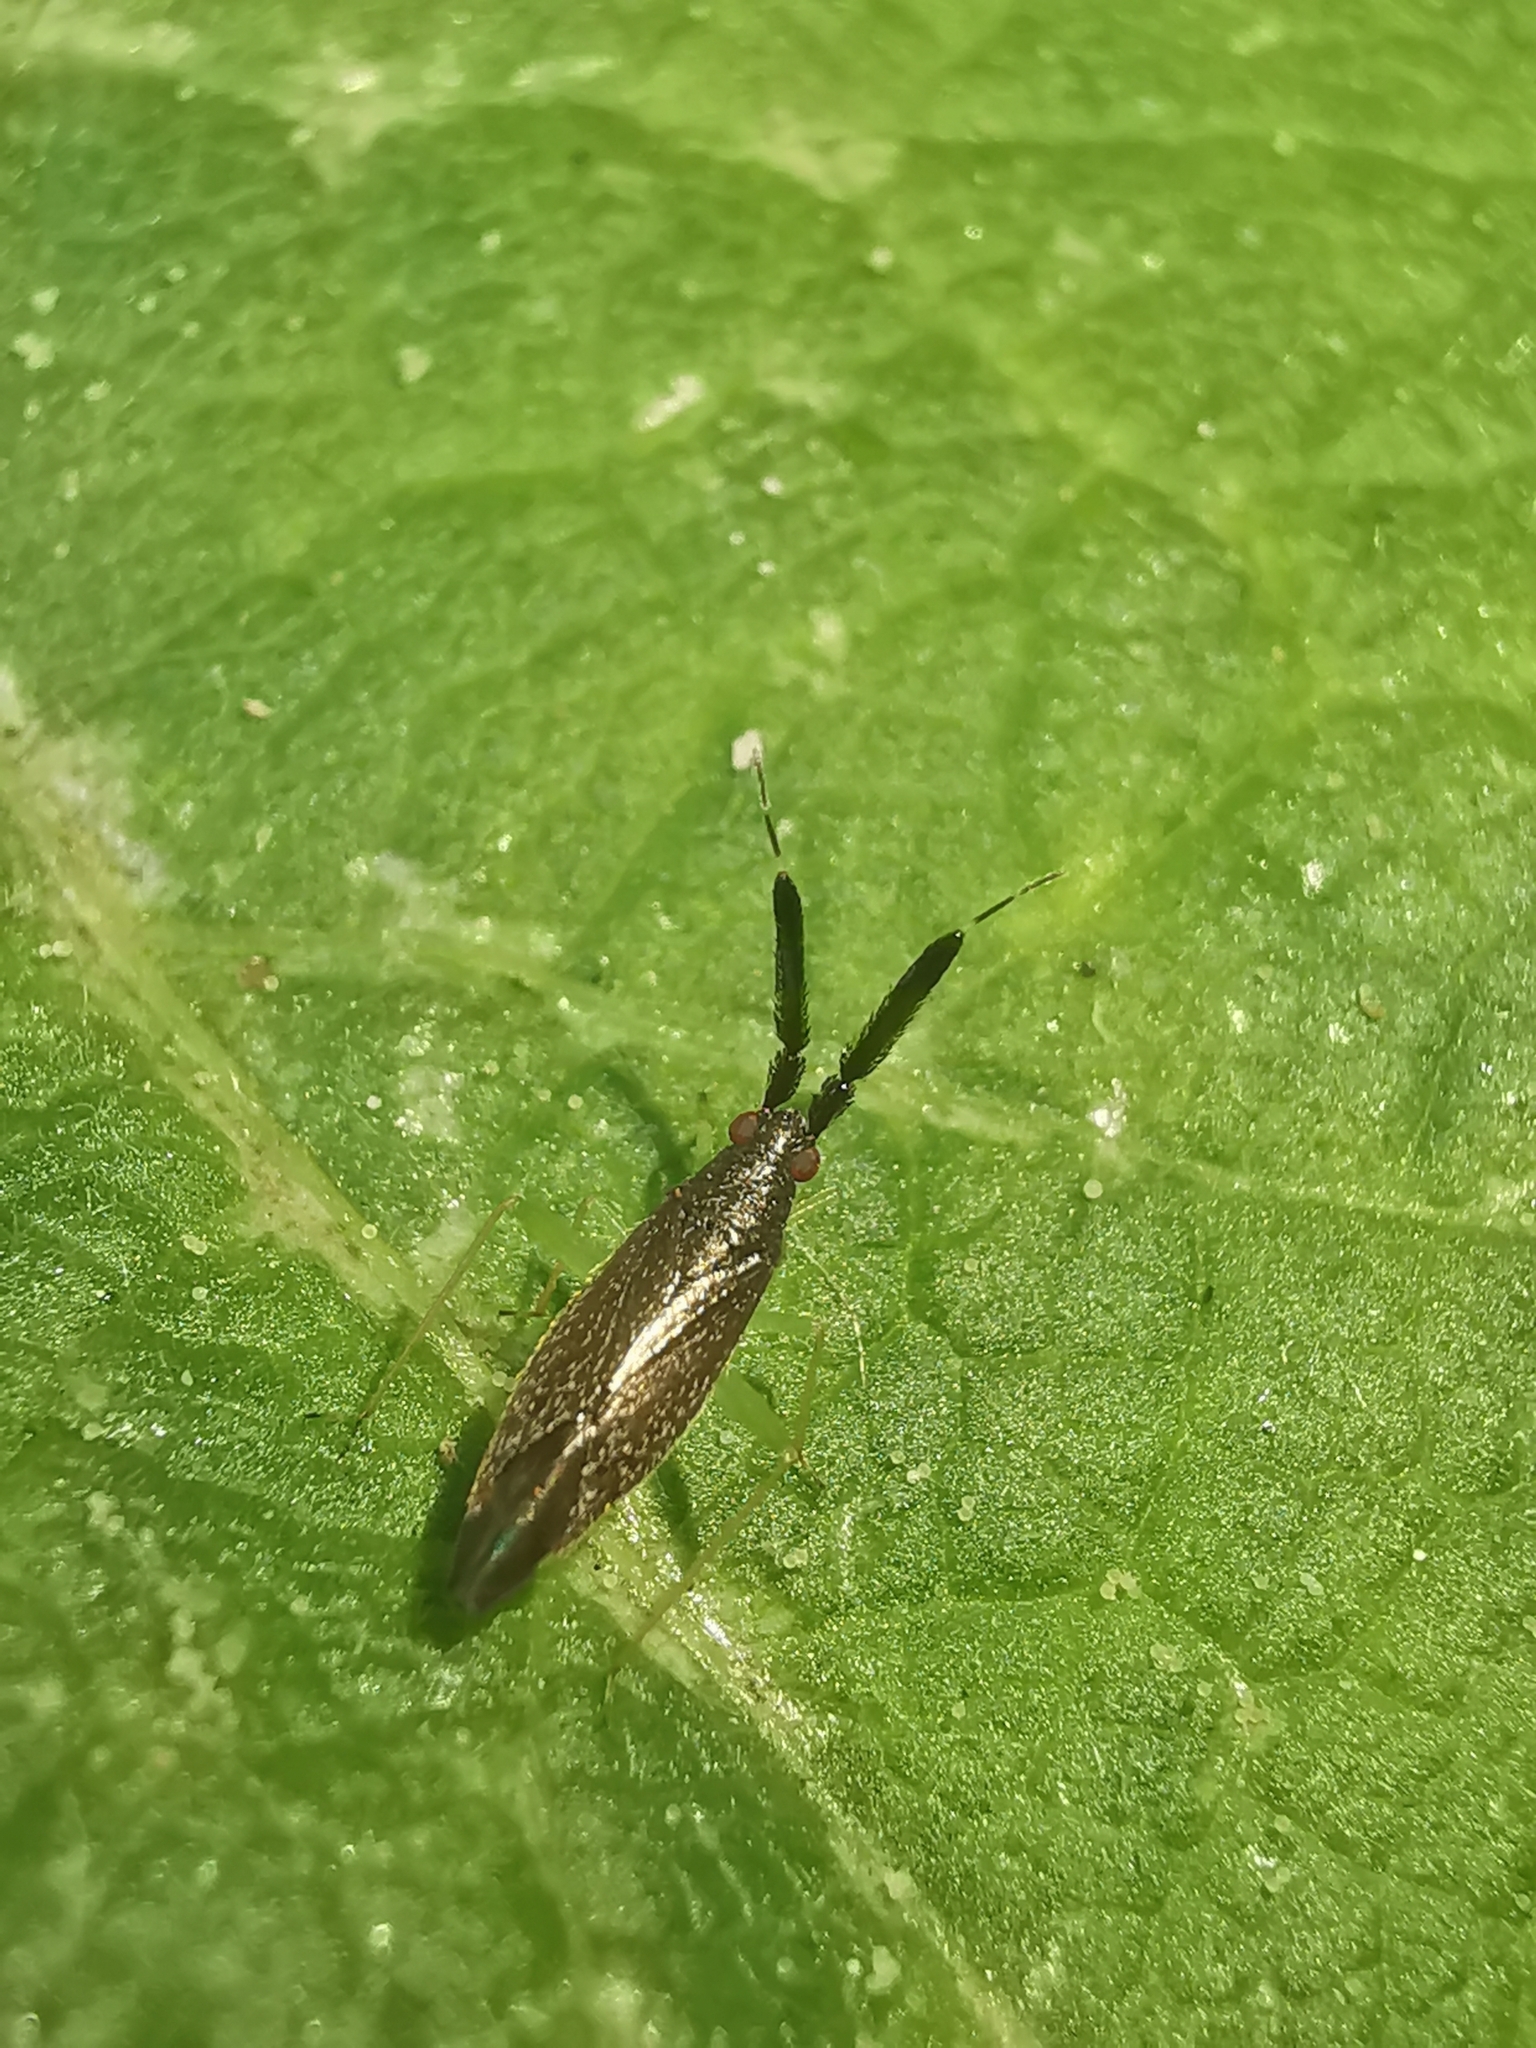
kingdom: Animalia
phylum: Arthropoda
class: Insecta
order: Hemiptera
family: Miridae
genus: Heterotoma
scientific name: Heterotoma planicornis
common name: Plant bug
